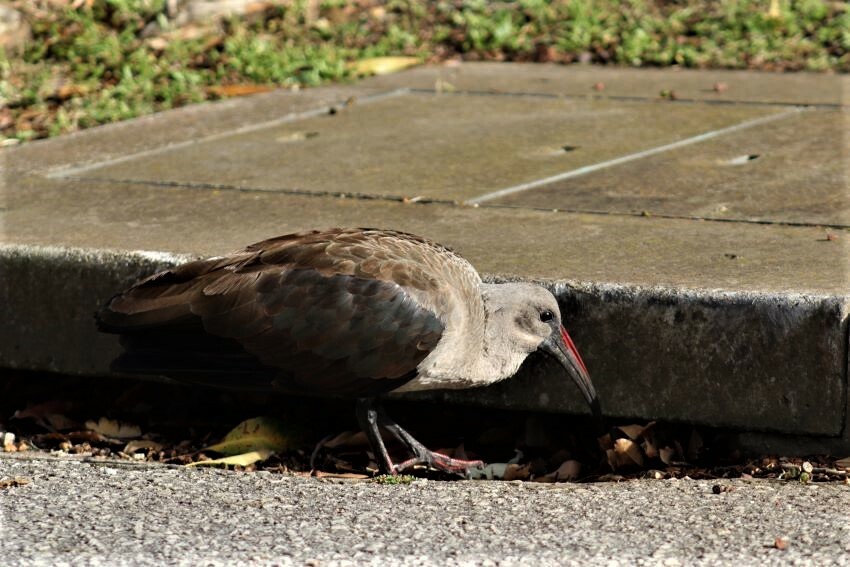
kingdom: Animalia
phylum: Chordata
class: Aves
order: Pelecaniformes
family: Threskiornithidae
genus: Bostrychia
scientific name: Bostrychia hagedash
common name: Hadada ibis
